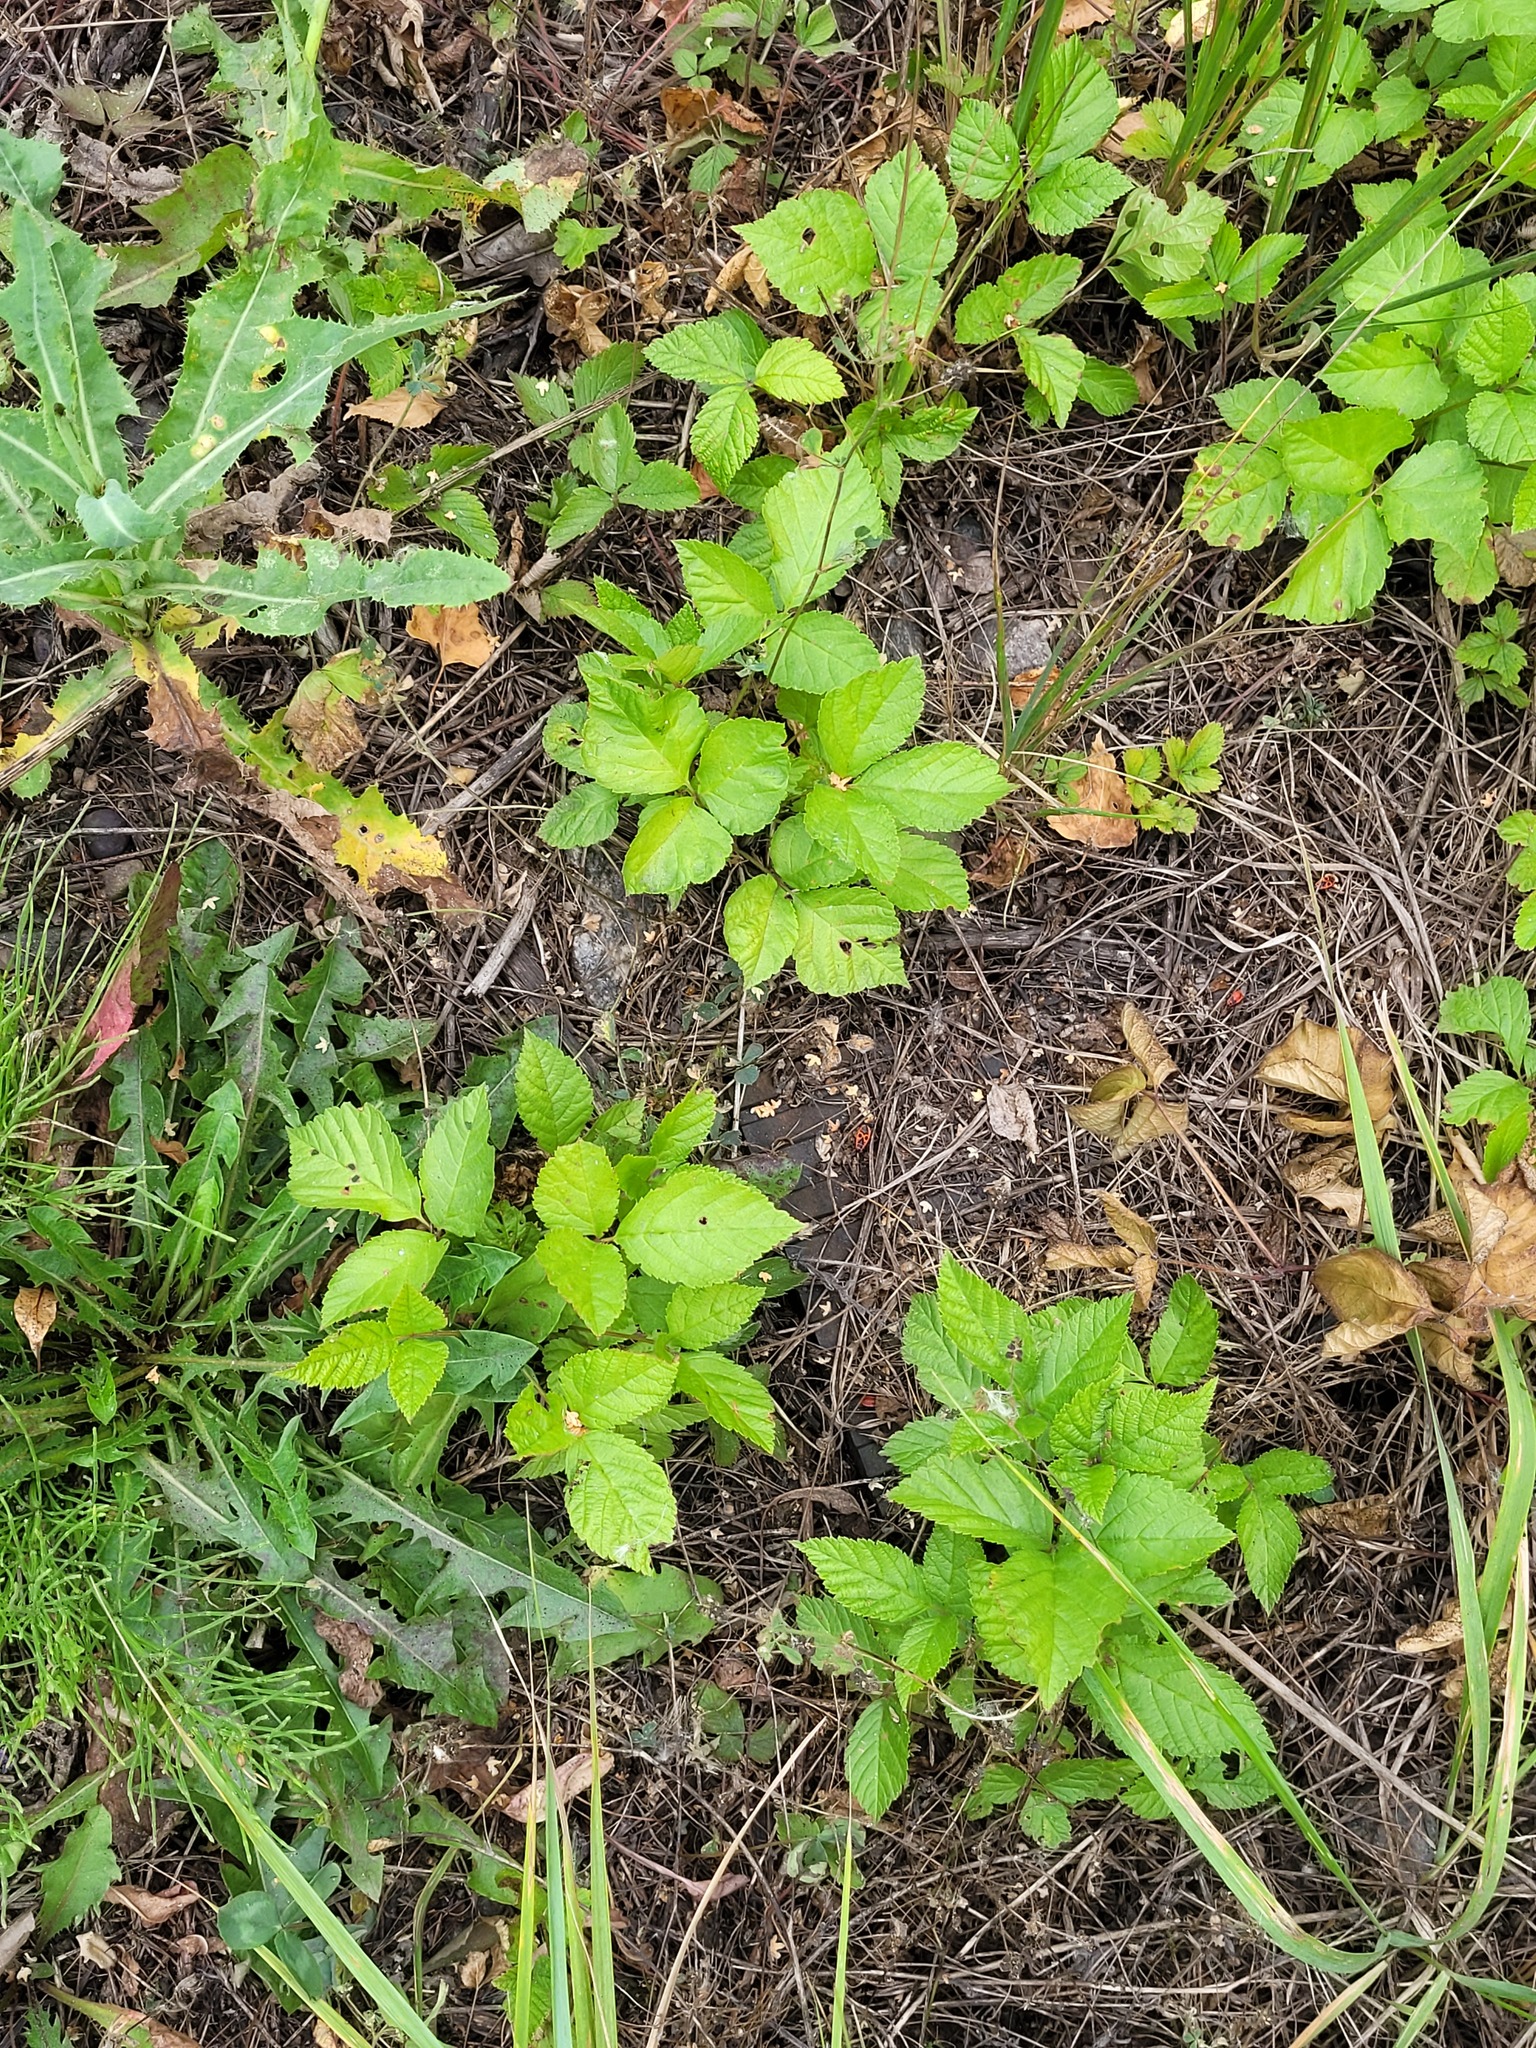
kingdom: Plantae
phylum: Tracheophyta
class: Magnoliopsida
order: Rosales
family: Rosaceae
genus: Rubus
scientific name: Rubus saxatilis
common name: Stone bramble
